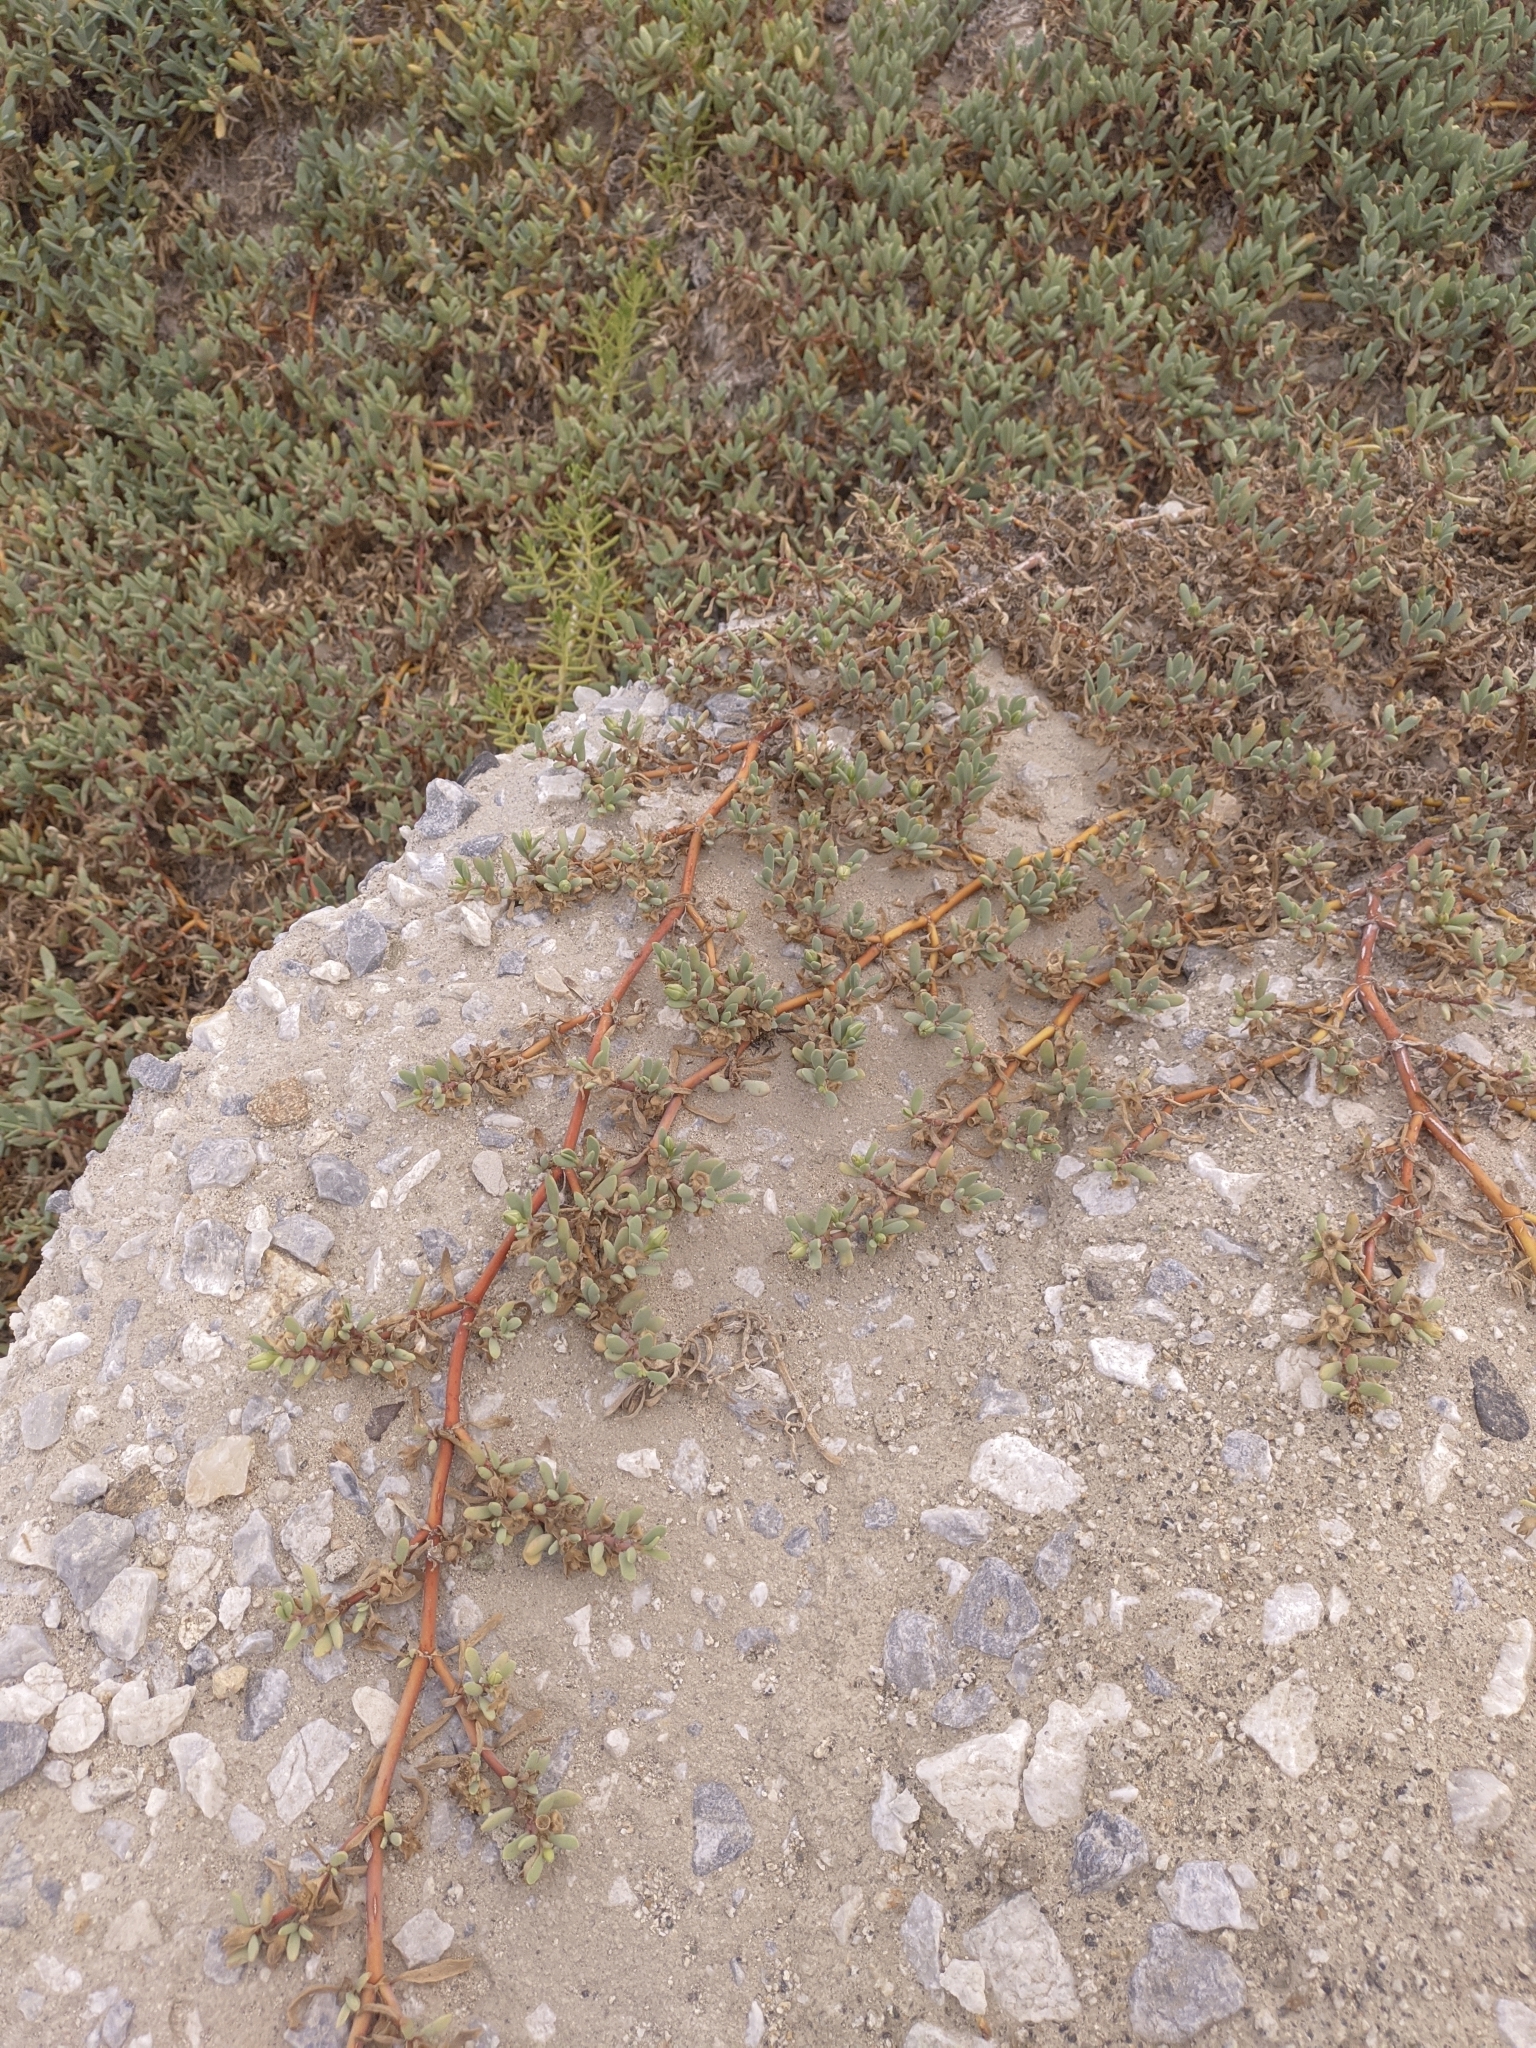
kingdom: Plantae
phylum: Tracheophyta
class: Magnoliopsida
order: Caryophyllales
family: Aizoaceae
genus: Sesuvium
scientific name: Sesuvium portulacastrum
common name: Sea-purslane
